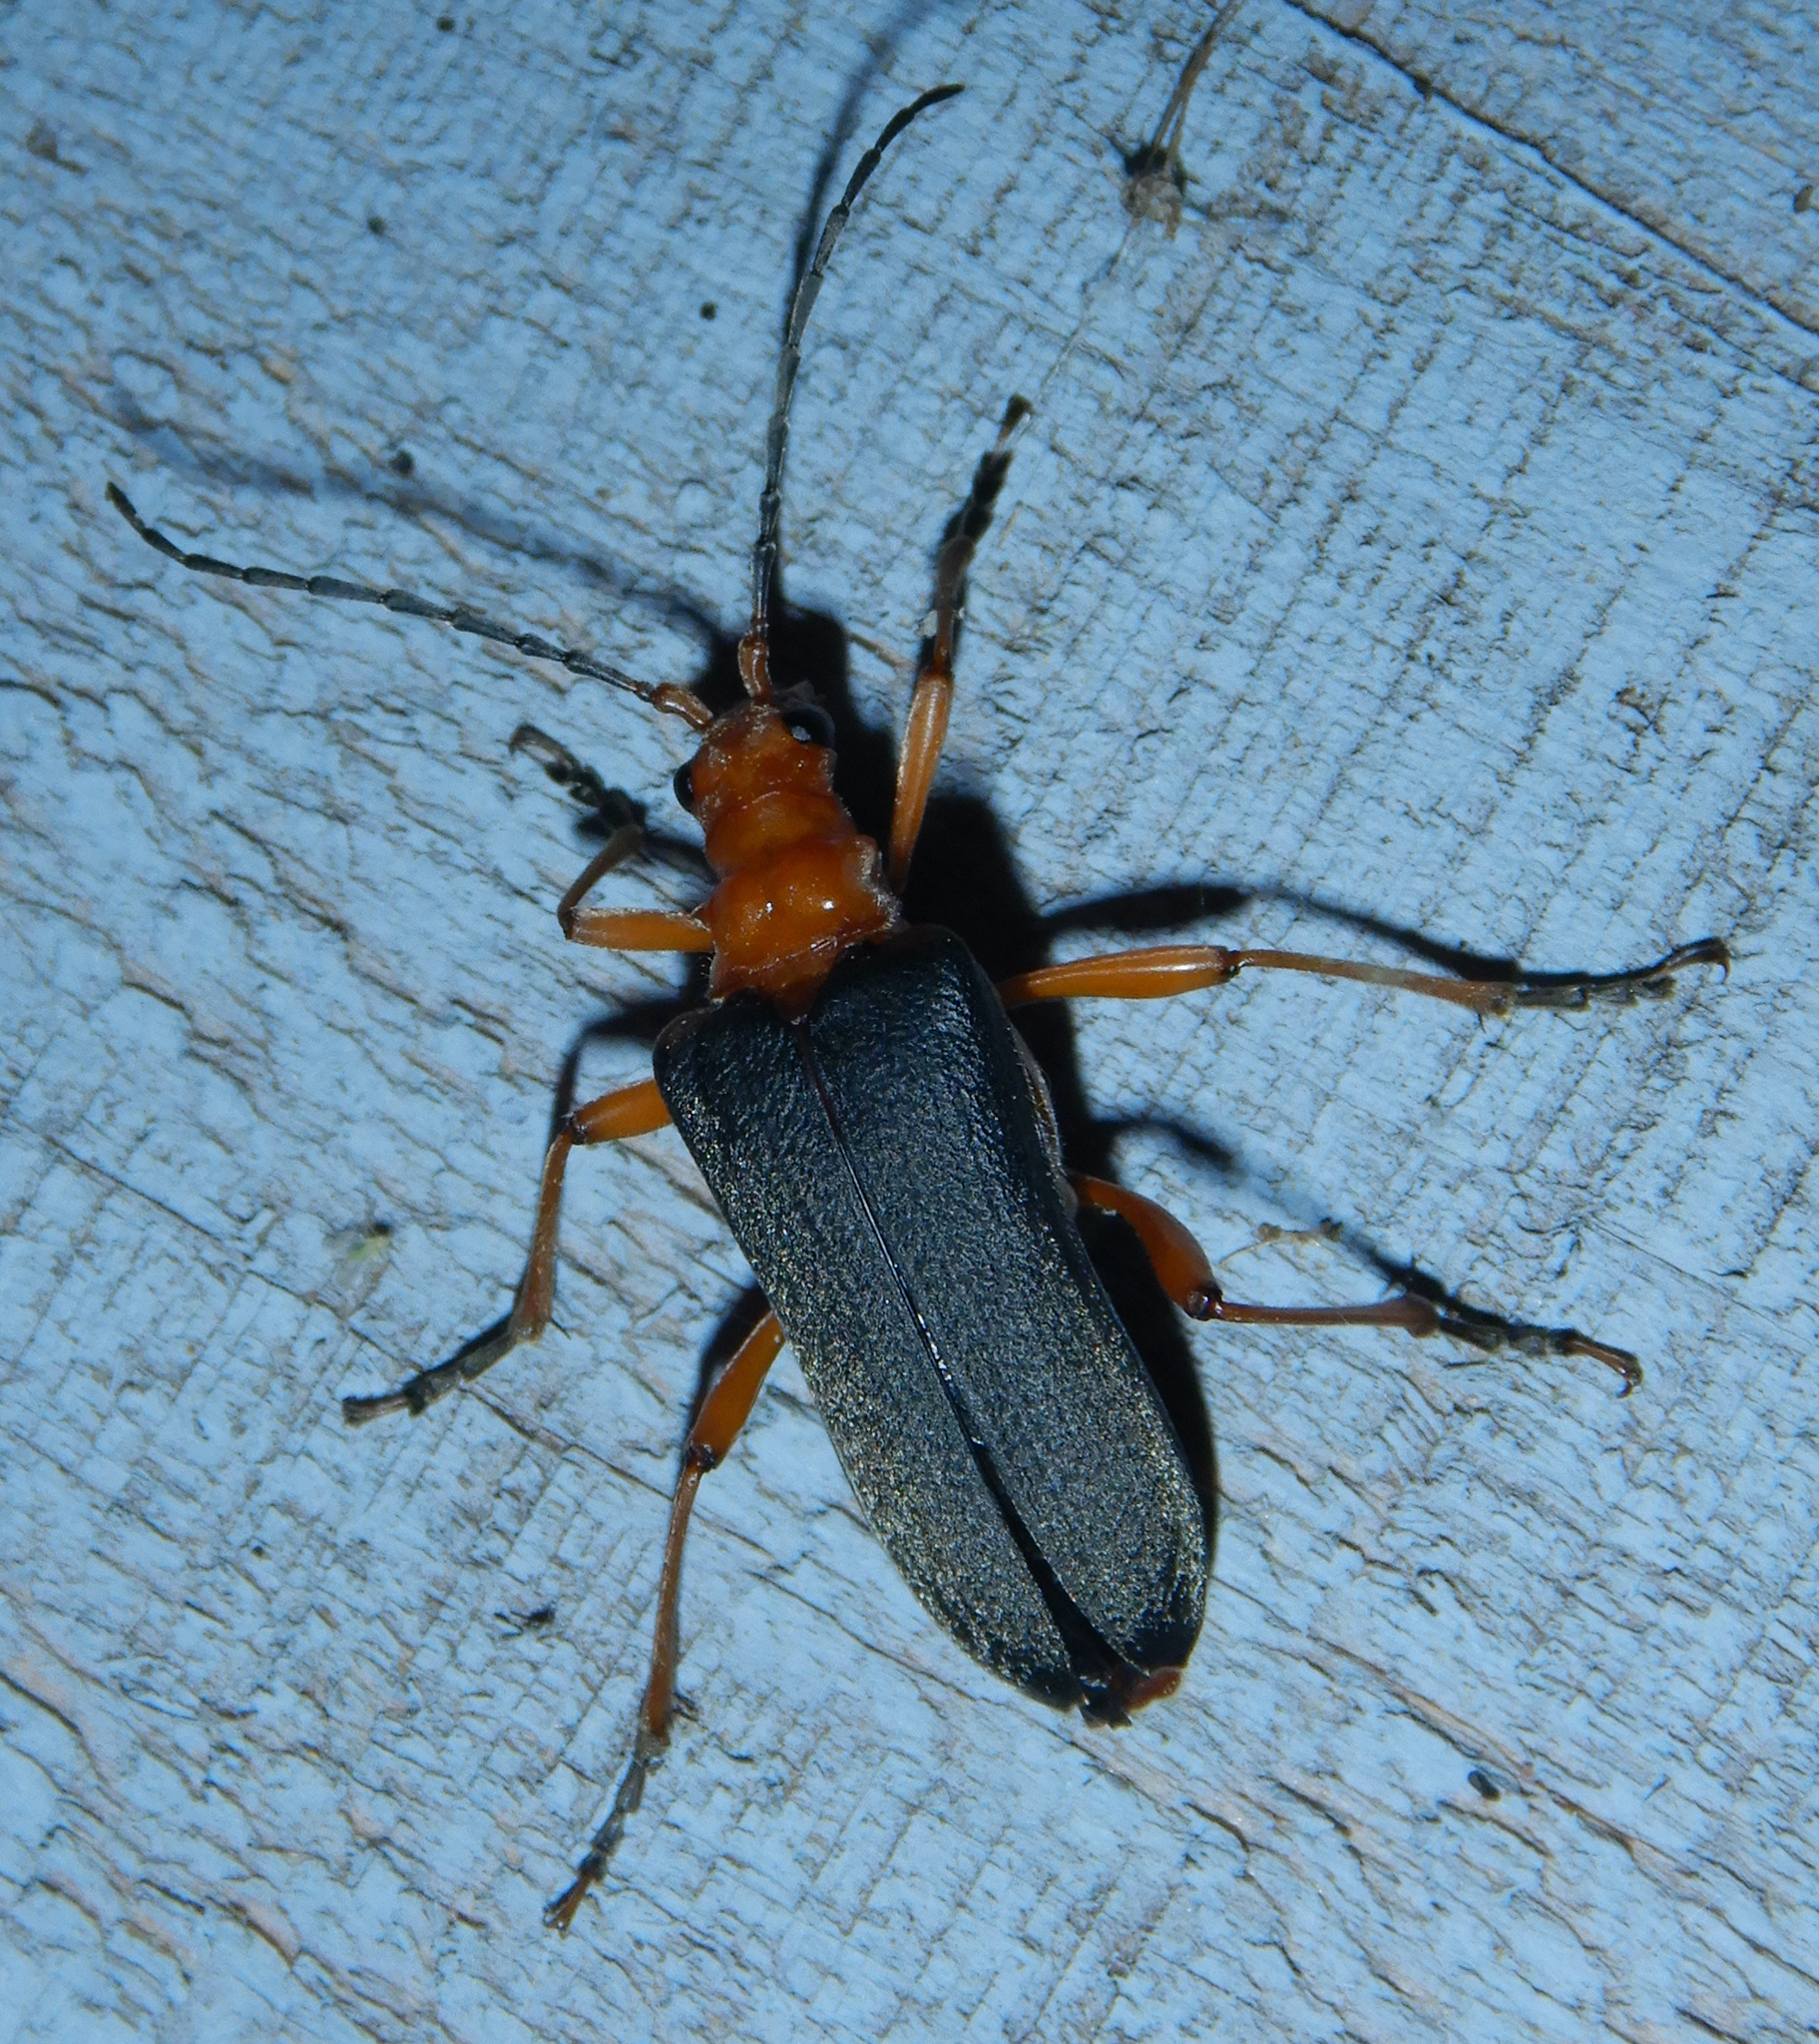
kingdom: Animalia
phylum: Arthropoda
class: Insecta
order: Coleoptera
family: Cerambycidae
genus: Stenocorus
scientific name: Stenocorus schaumii
